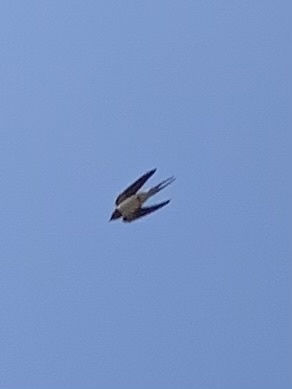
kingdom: Animalia
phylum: Chordata
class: Aves
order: Passeriformes
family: Hirundinidae
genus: Hirundo
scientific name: Hirundo rustica
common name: Barn swallow
